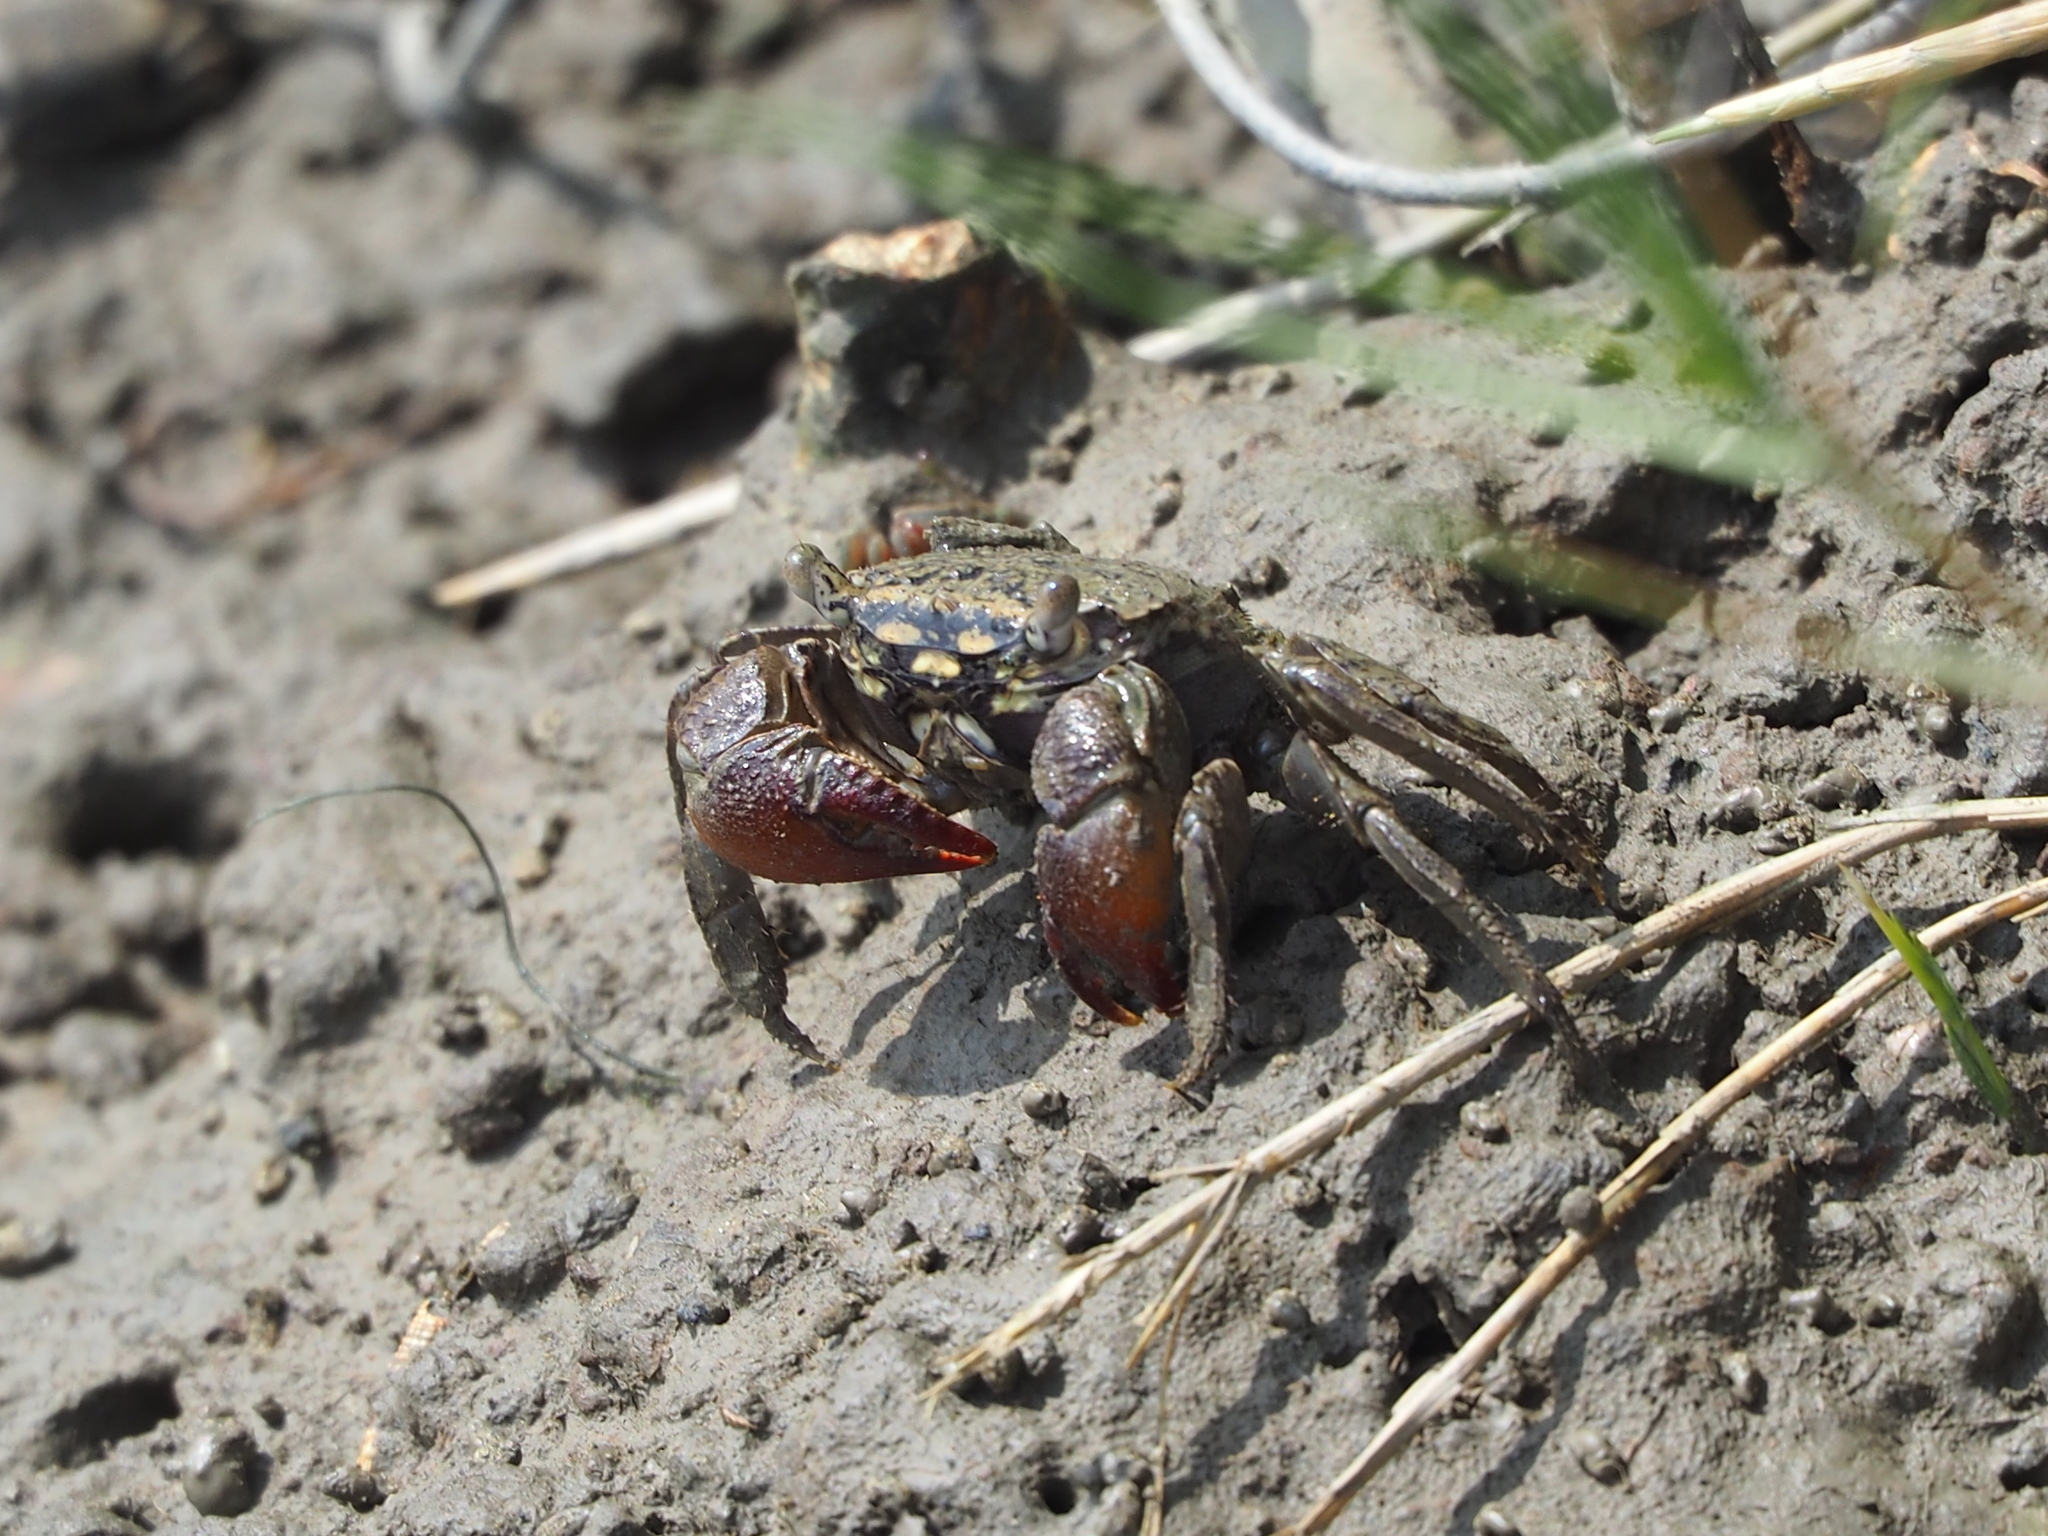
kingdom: Animalia
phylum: Arthropoda
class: Malacostraca
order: Decapoda
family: Sesarmidae
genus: Parasesarma
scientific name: Parasesarma affine
